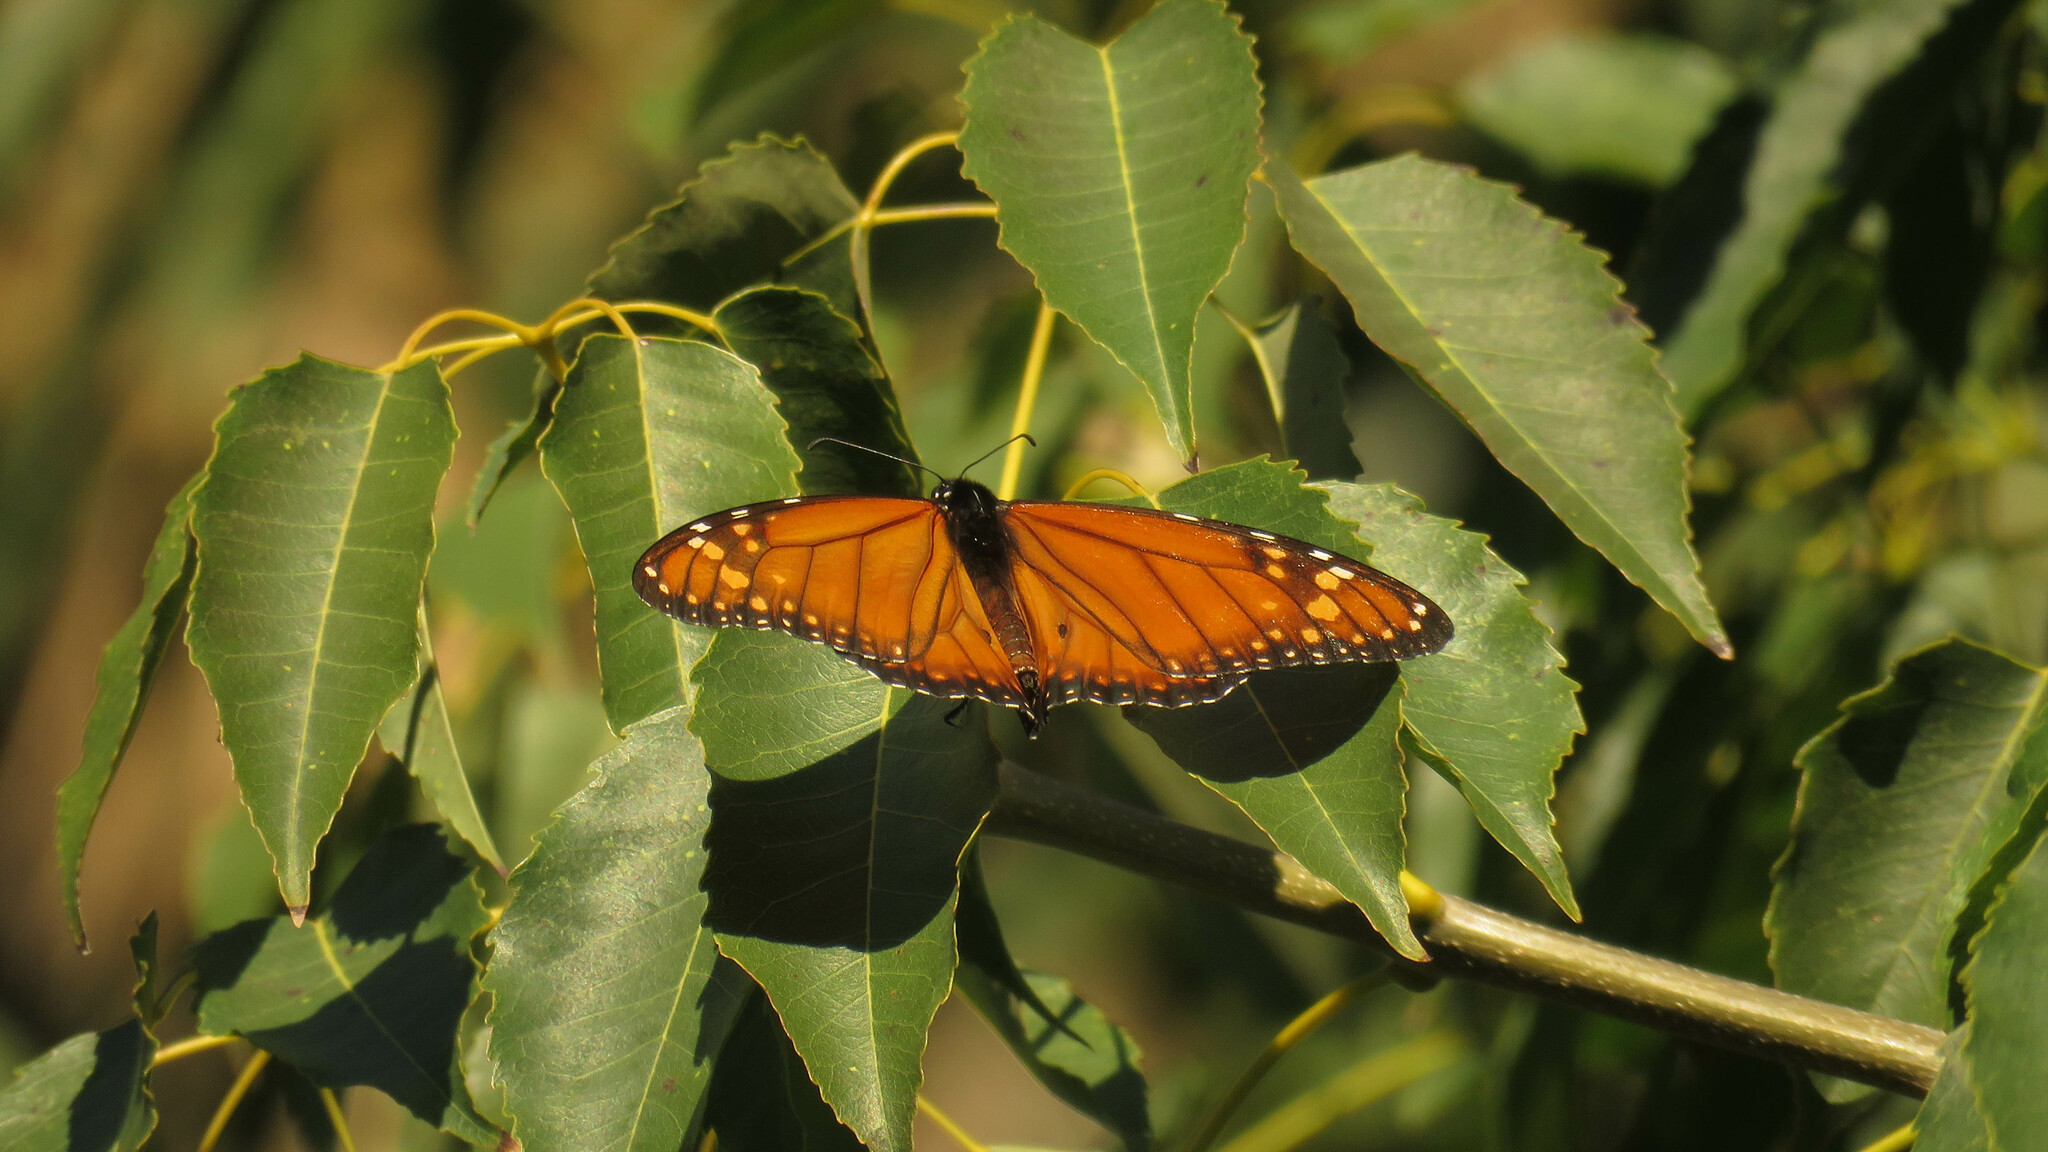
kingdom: Animalia
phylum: Arthropoda
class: Insecta
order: Lepidoptera
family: Nymphalidae
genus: Danaus
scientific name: Danaus erippus
